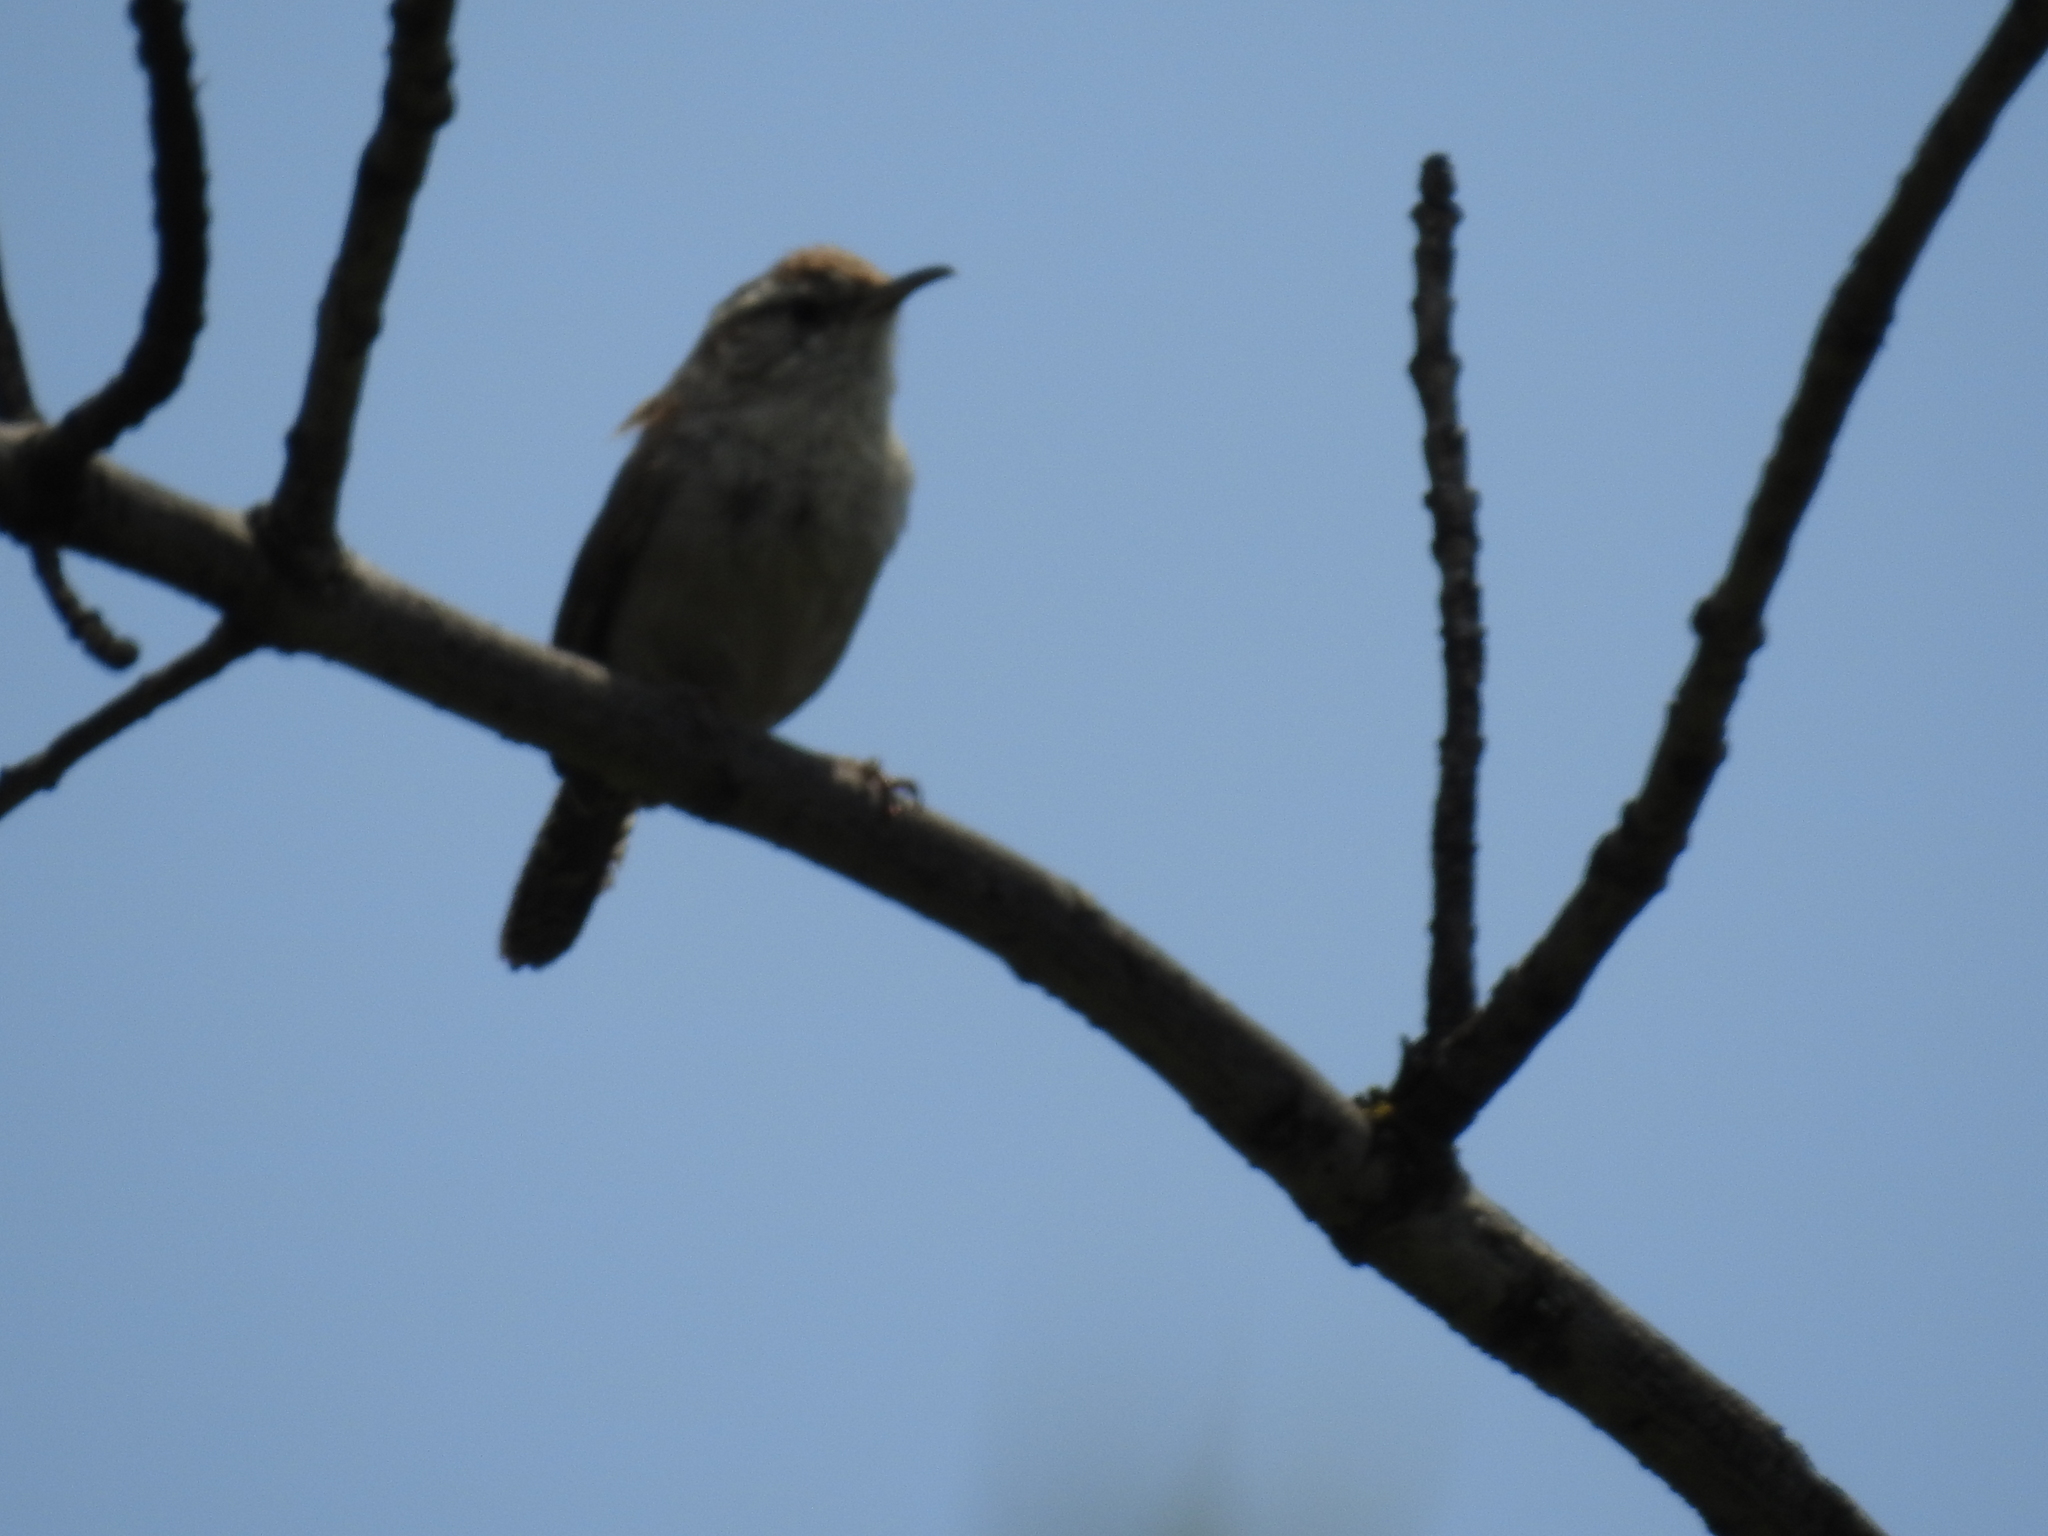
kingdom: Animalia
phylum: Chordata
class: Aves
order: Passeriformes
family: Troglodytidae
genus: Thryomanes
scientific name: Thryomanes bewickii
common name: Bewick's wren
